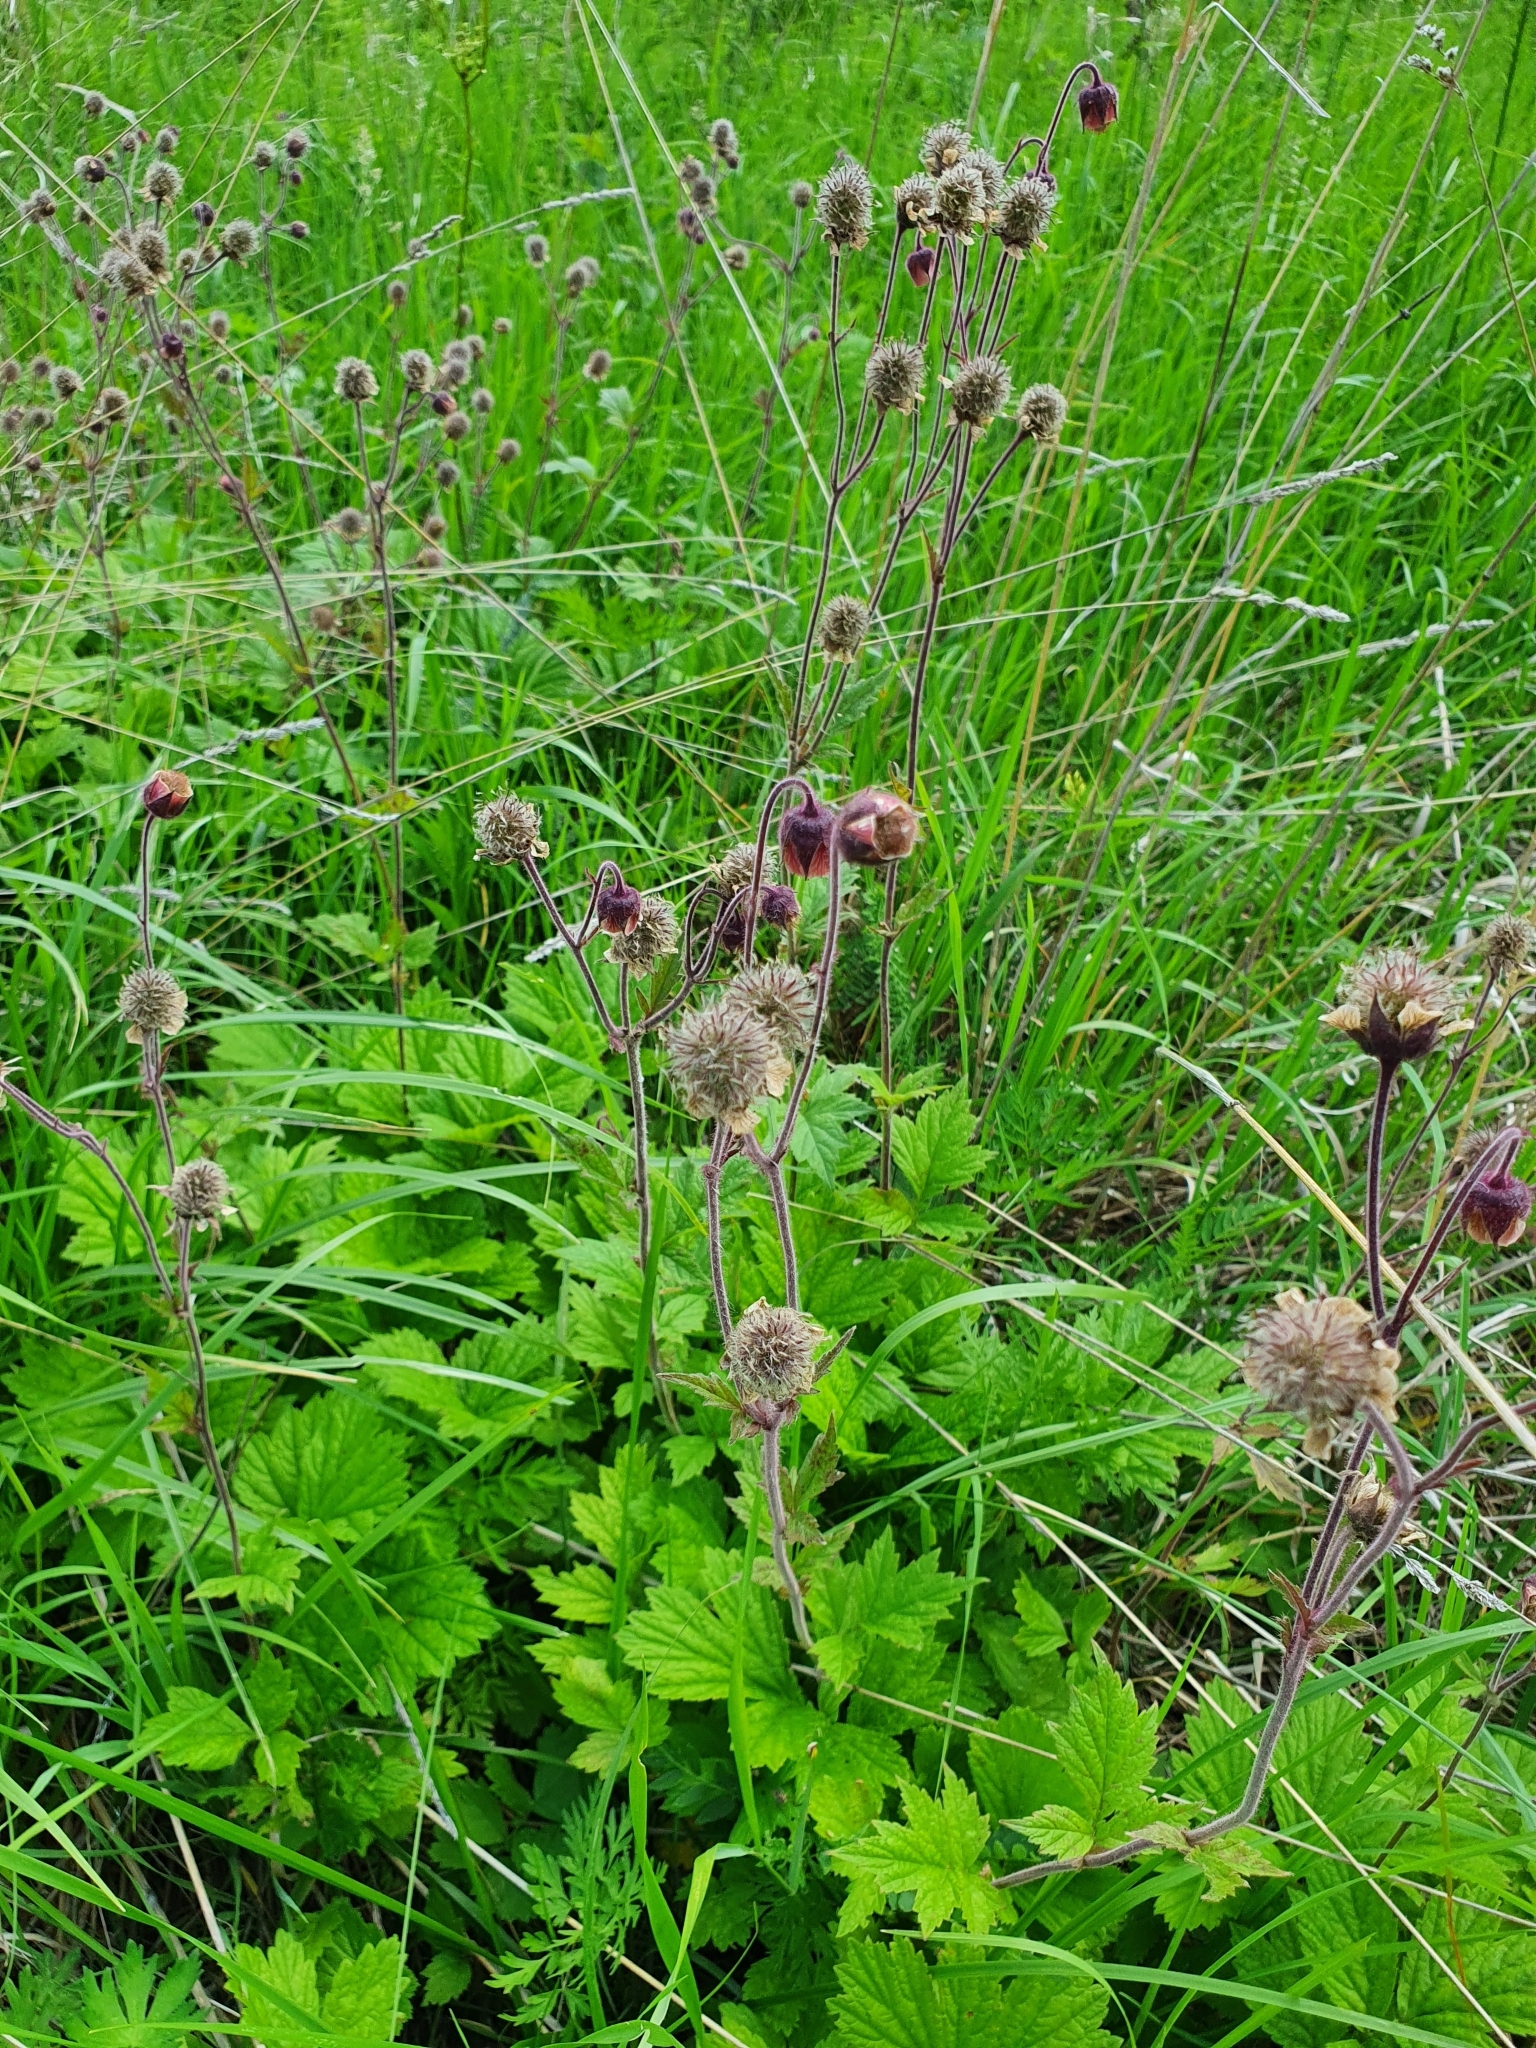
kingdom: Plantae
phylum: Tracheophyta
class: Magnoliopsida
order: Rosales
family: Rosaceae
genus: Geum
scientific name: Geum rivale
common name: Water avens
